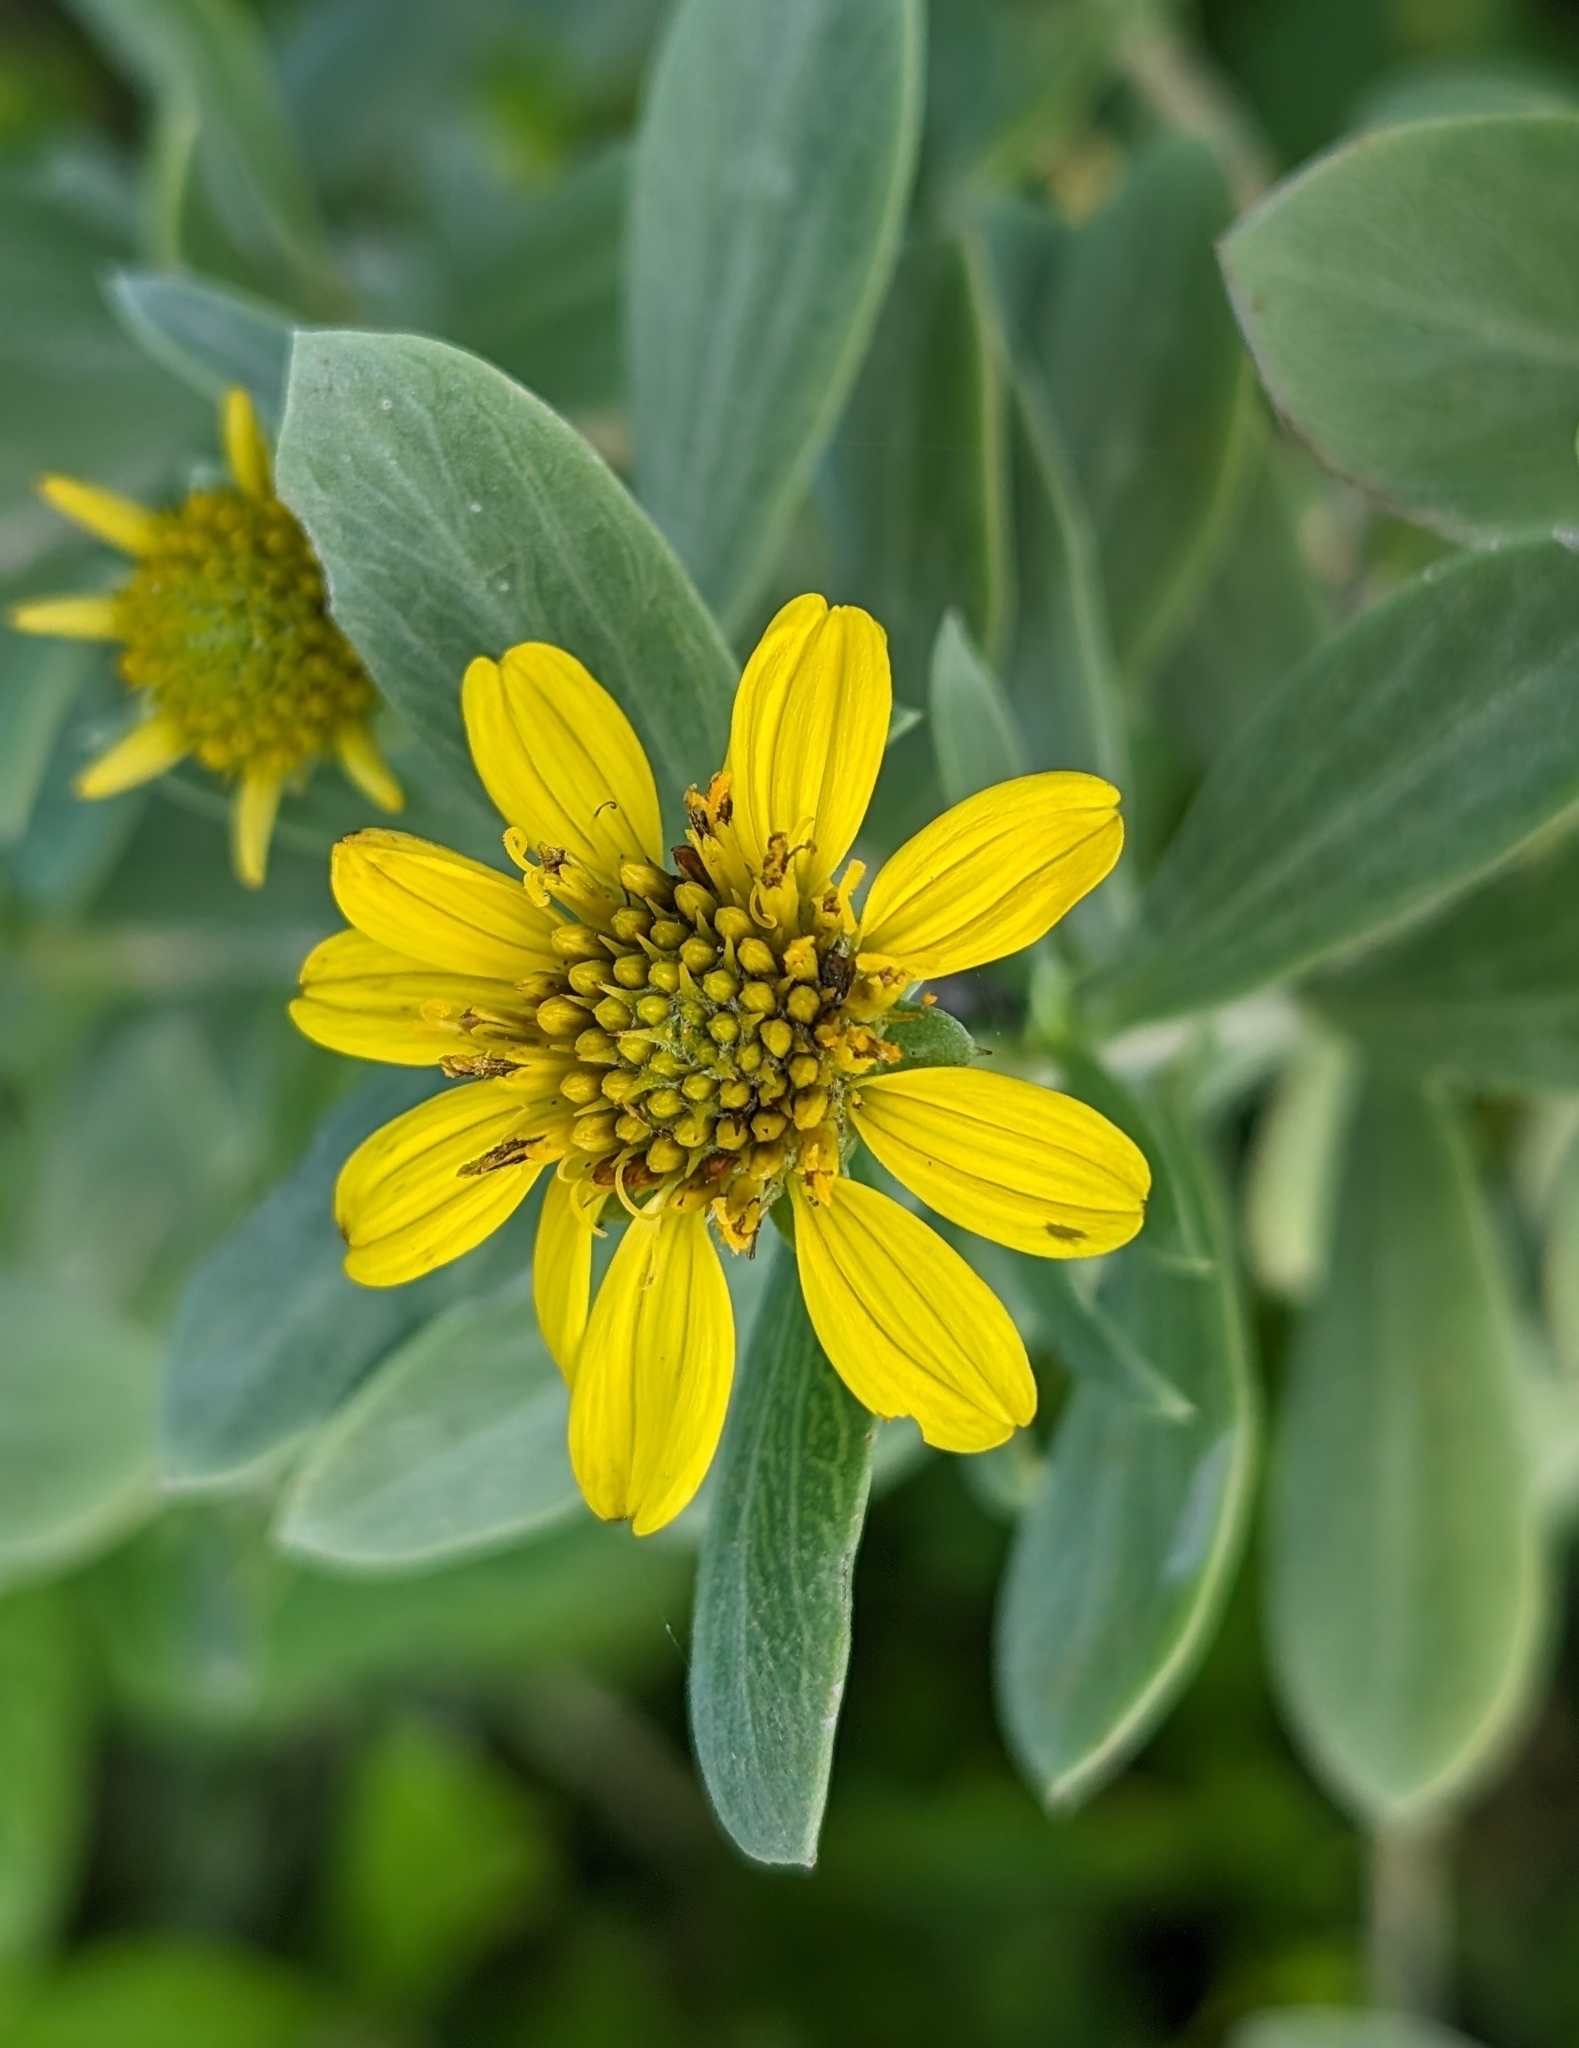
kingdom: Plantae
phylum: Tracheophyta
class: Magnoliopsida
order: Asterales
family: Asteraceae
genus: Borrichia
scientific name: Borrichia frutescens
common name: Sea oxeye
